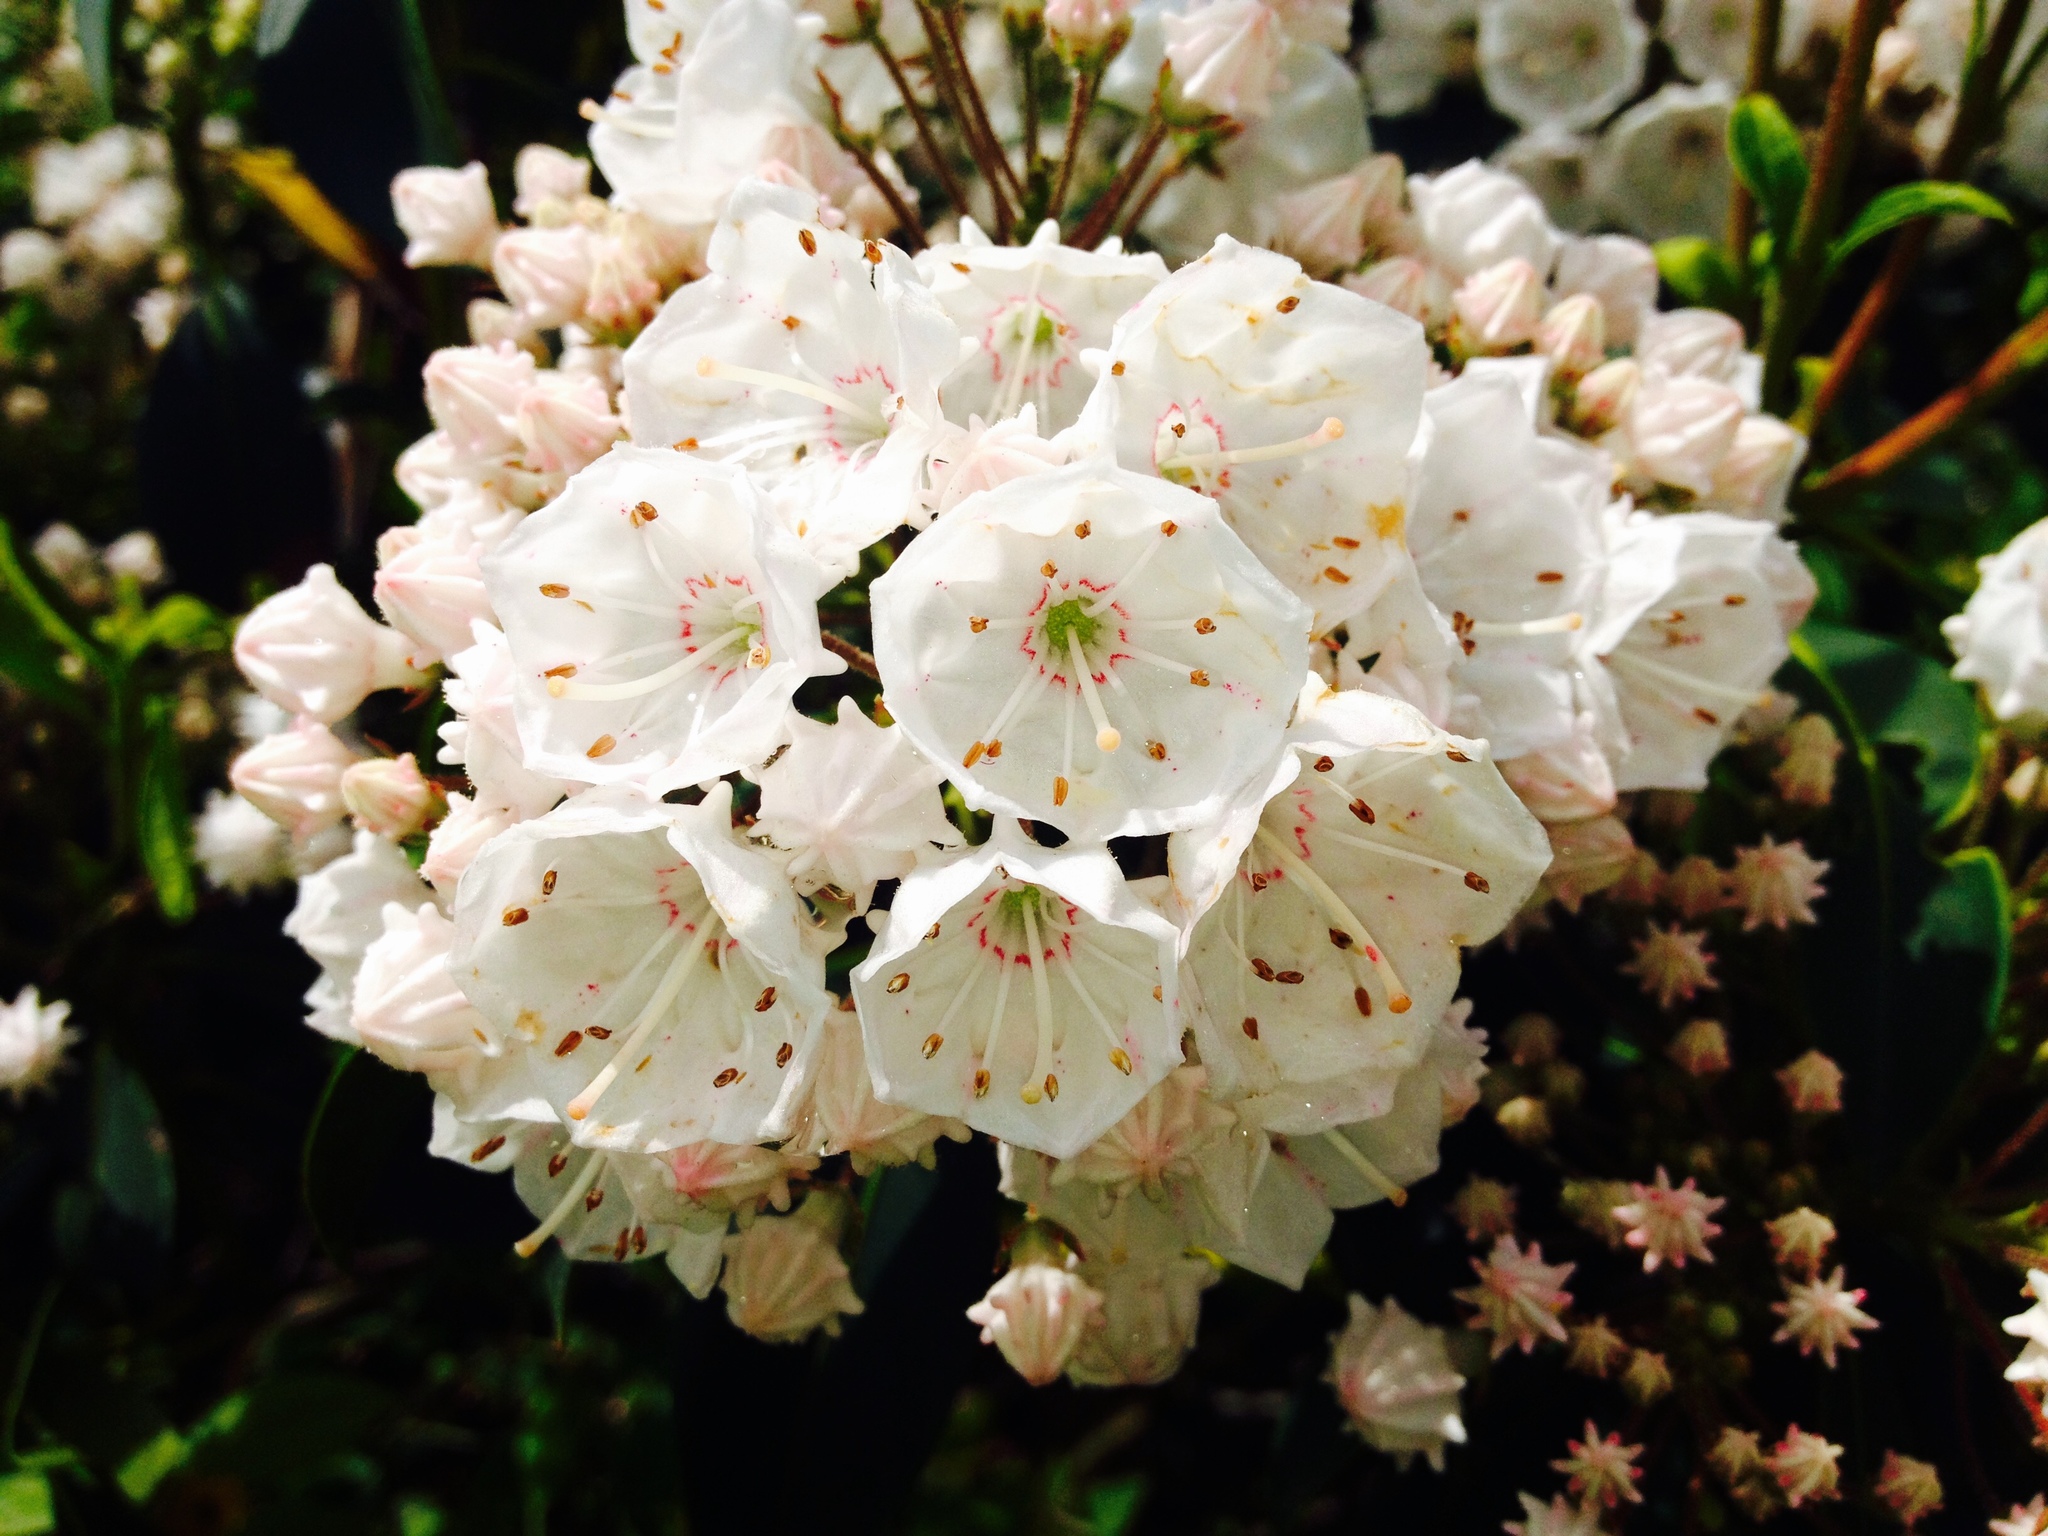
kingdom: Plantae
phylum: Tracheophyta
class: Magnoliopsida
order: Ericales
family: Ericaceae
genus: Kalmia
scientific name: Kalmia latifolia
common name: Mountain-laurel
